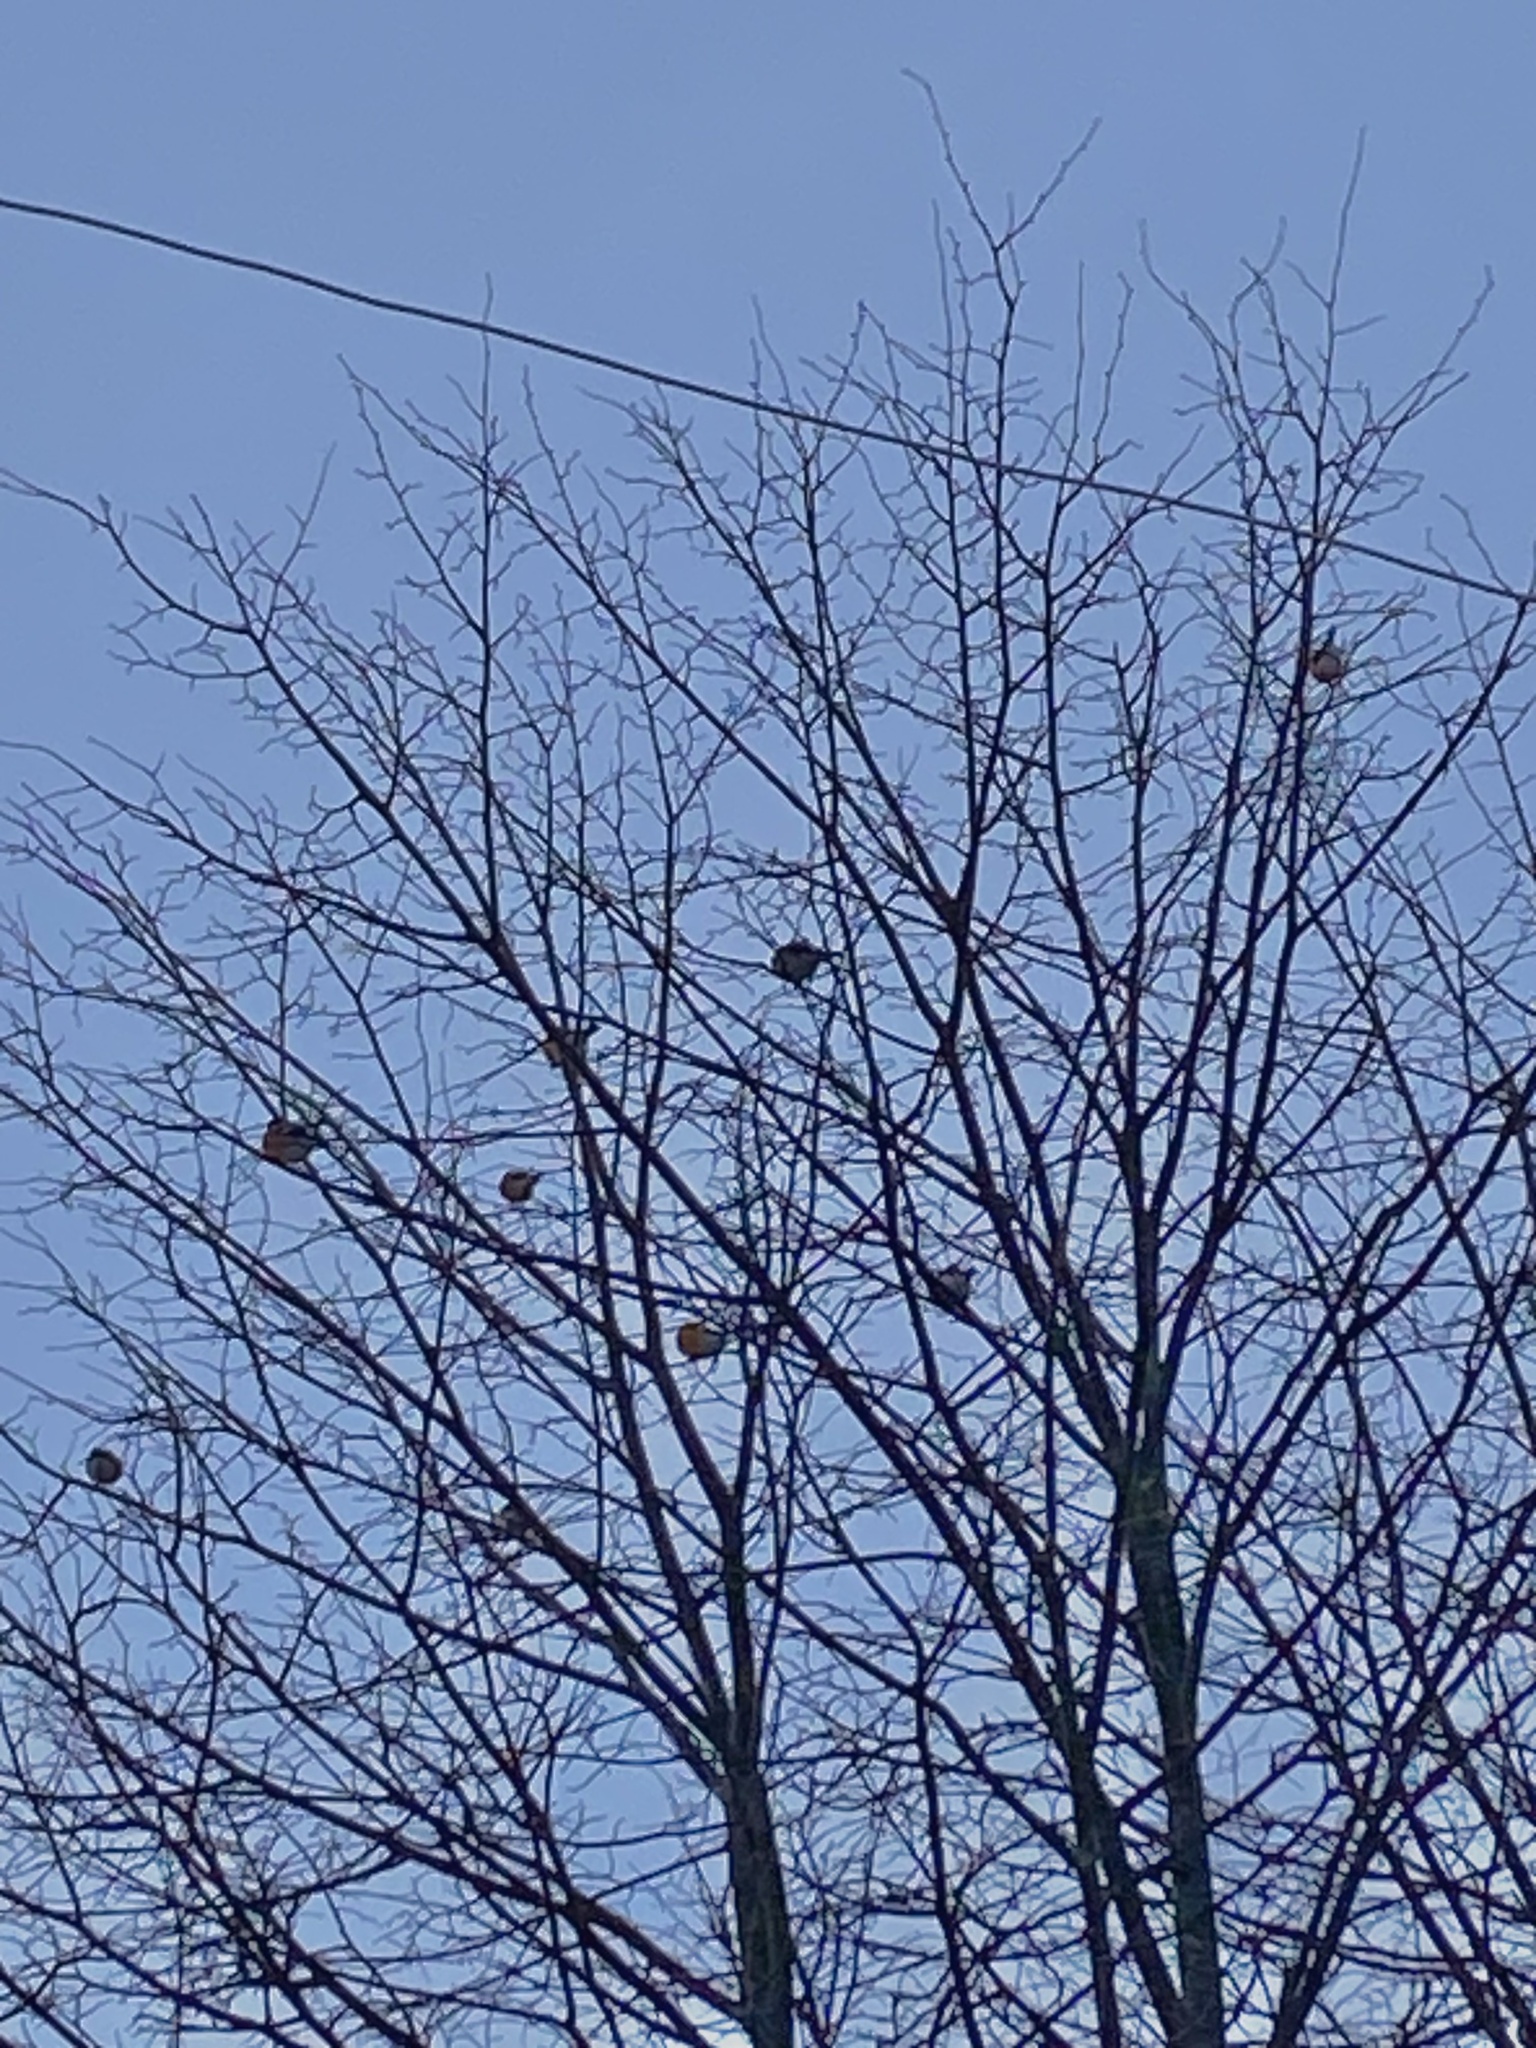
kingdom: Animalia
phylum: Chordata
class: Aves
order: Passeriformes
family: Fringillidae
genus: Pyrrhula
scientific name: Pyrrhula pyrrhula
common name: Eurasian bullfinch
